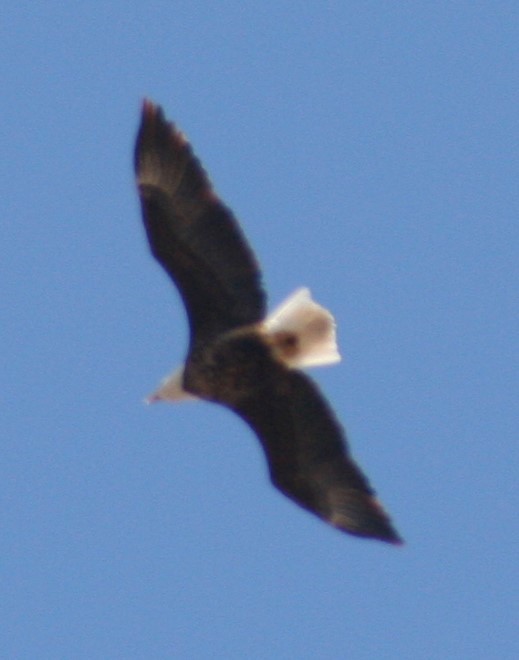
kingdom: Animalia
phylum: Chordata
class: Aves
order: Accipitriformes
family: Accipitridae
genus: Haliaeetus
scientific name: Haliaeetus leucocephalus
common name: Bald eagle
